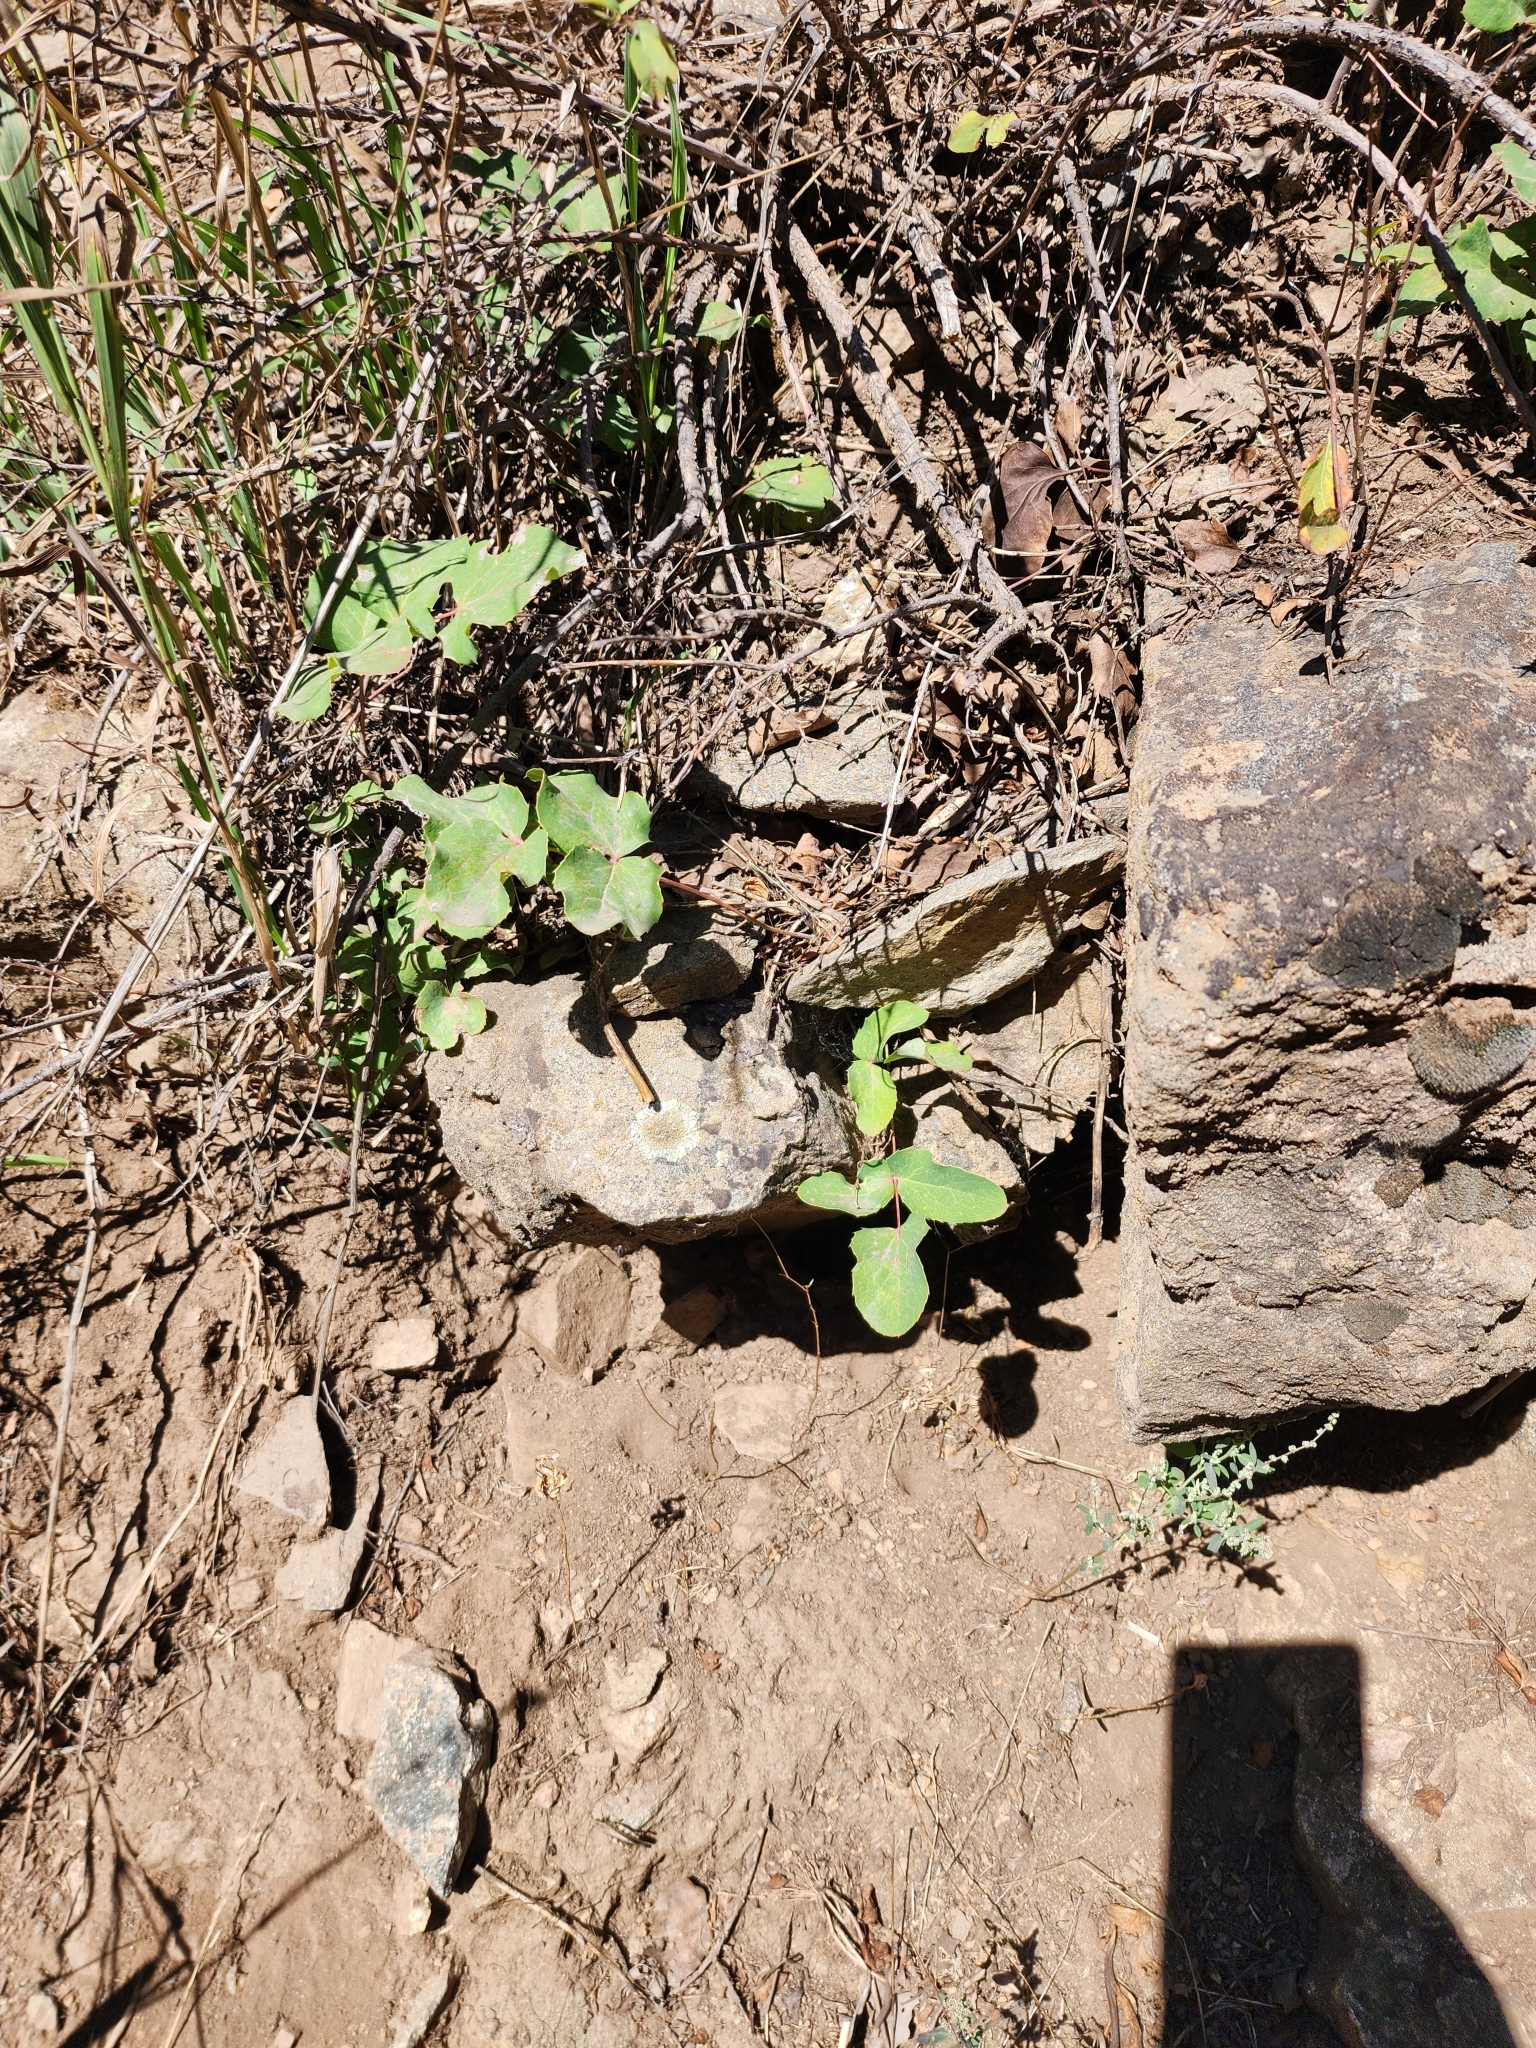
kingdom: Plantae
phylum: Tracheophyta
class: Magnoliopsida
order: Ranunculales
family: Berberidaceae
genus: Mahonia
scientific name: Mahonia repens
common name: Creeping oregon-grape
